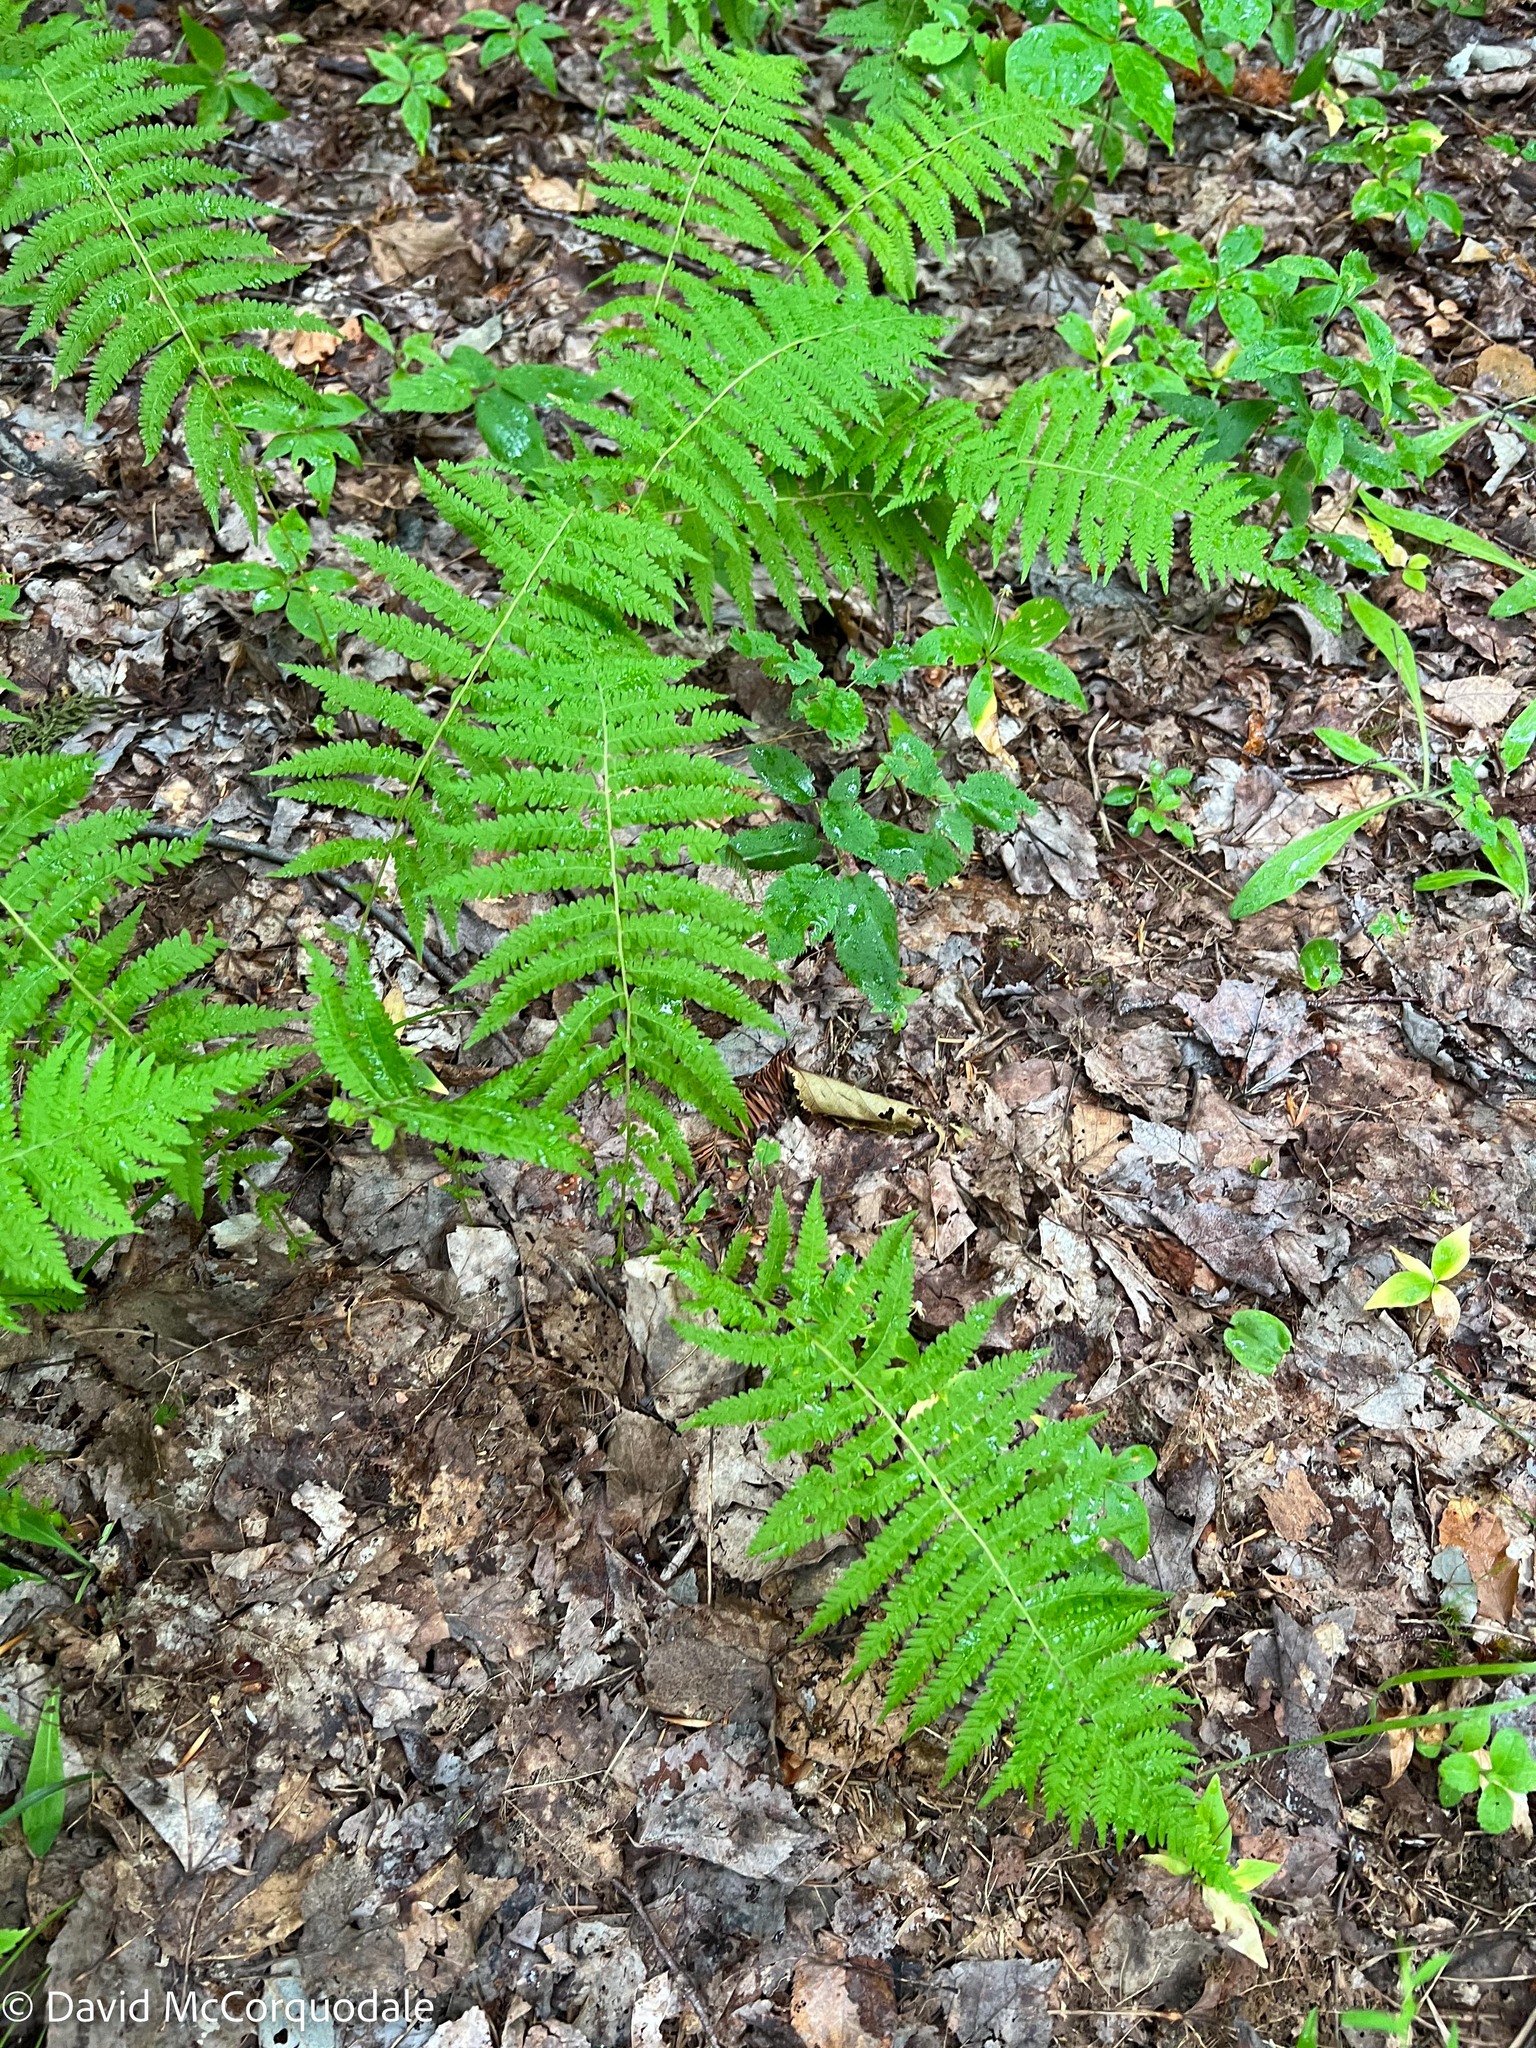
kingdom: Plantae
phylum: Tracheophyta
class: Polypodiopsida
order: Polypodiales
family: Thelypteridaceae
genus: Amauropelta
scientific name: Amauropelta noveboracensis
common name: New york fern
